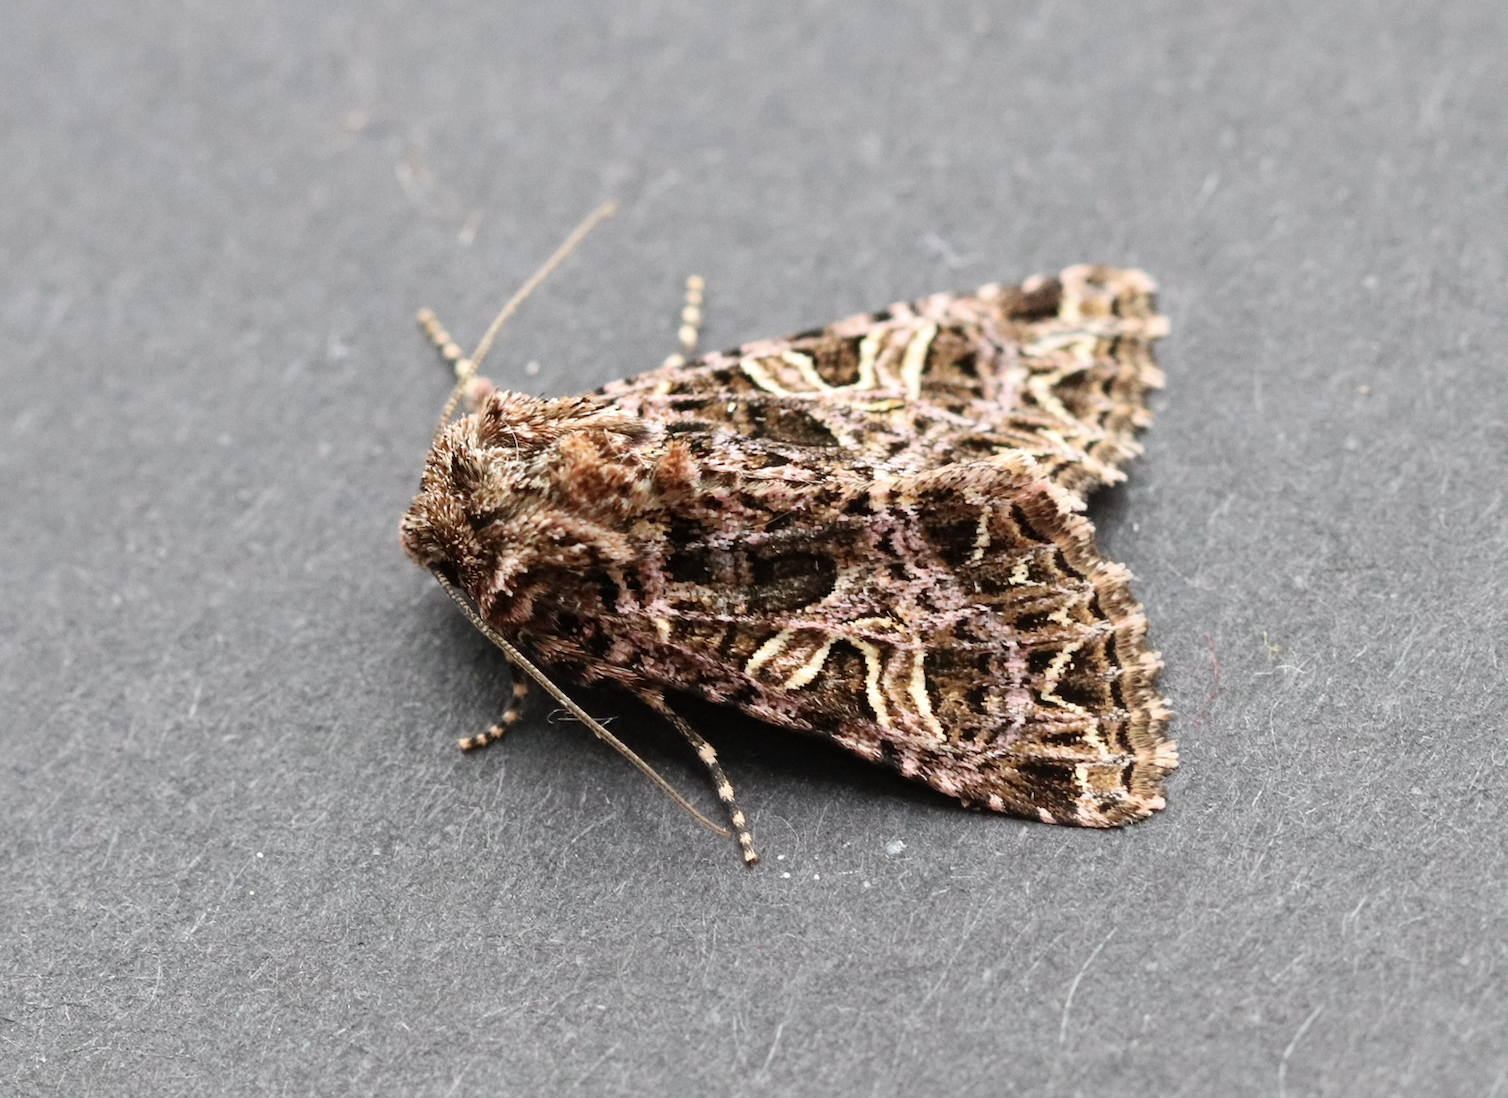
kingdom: Animalia
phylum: Arthropoda
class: Insecta
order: Lepidoptera
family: Noctuidae
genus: Sideridis
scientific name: Sideridis rivularis
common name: Campion
